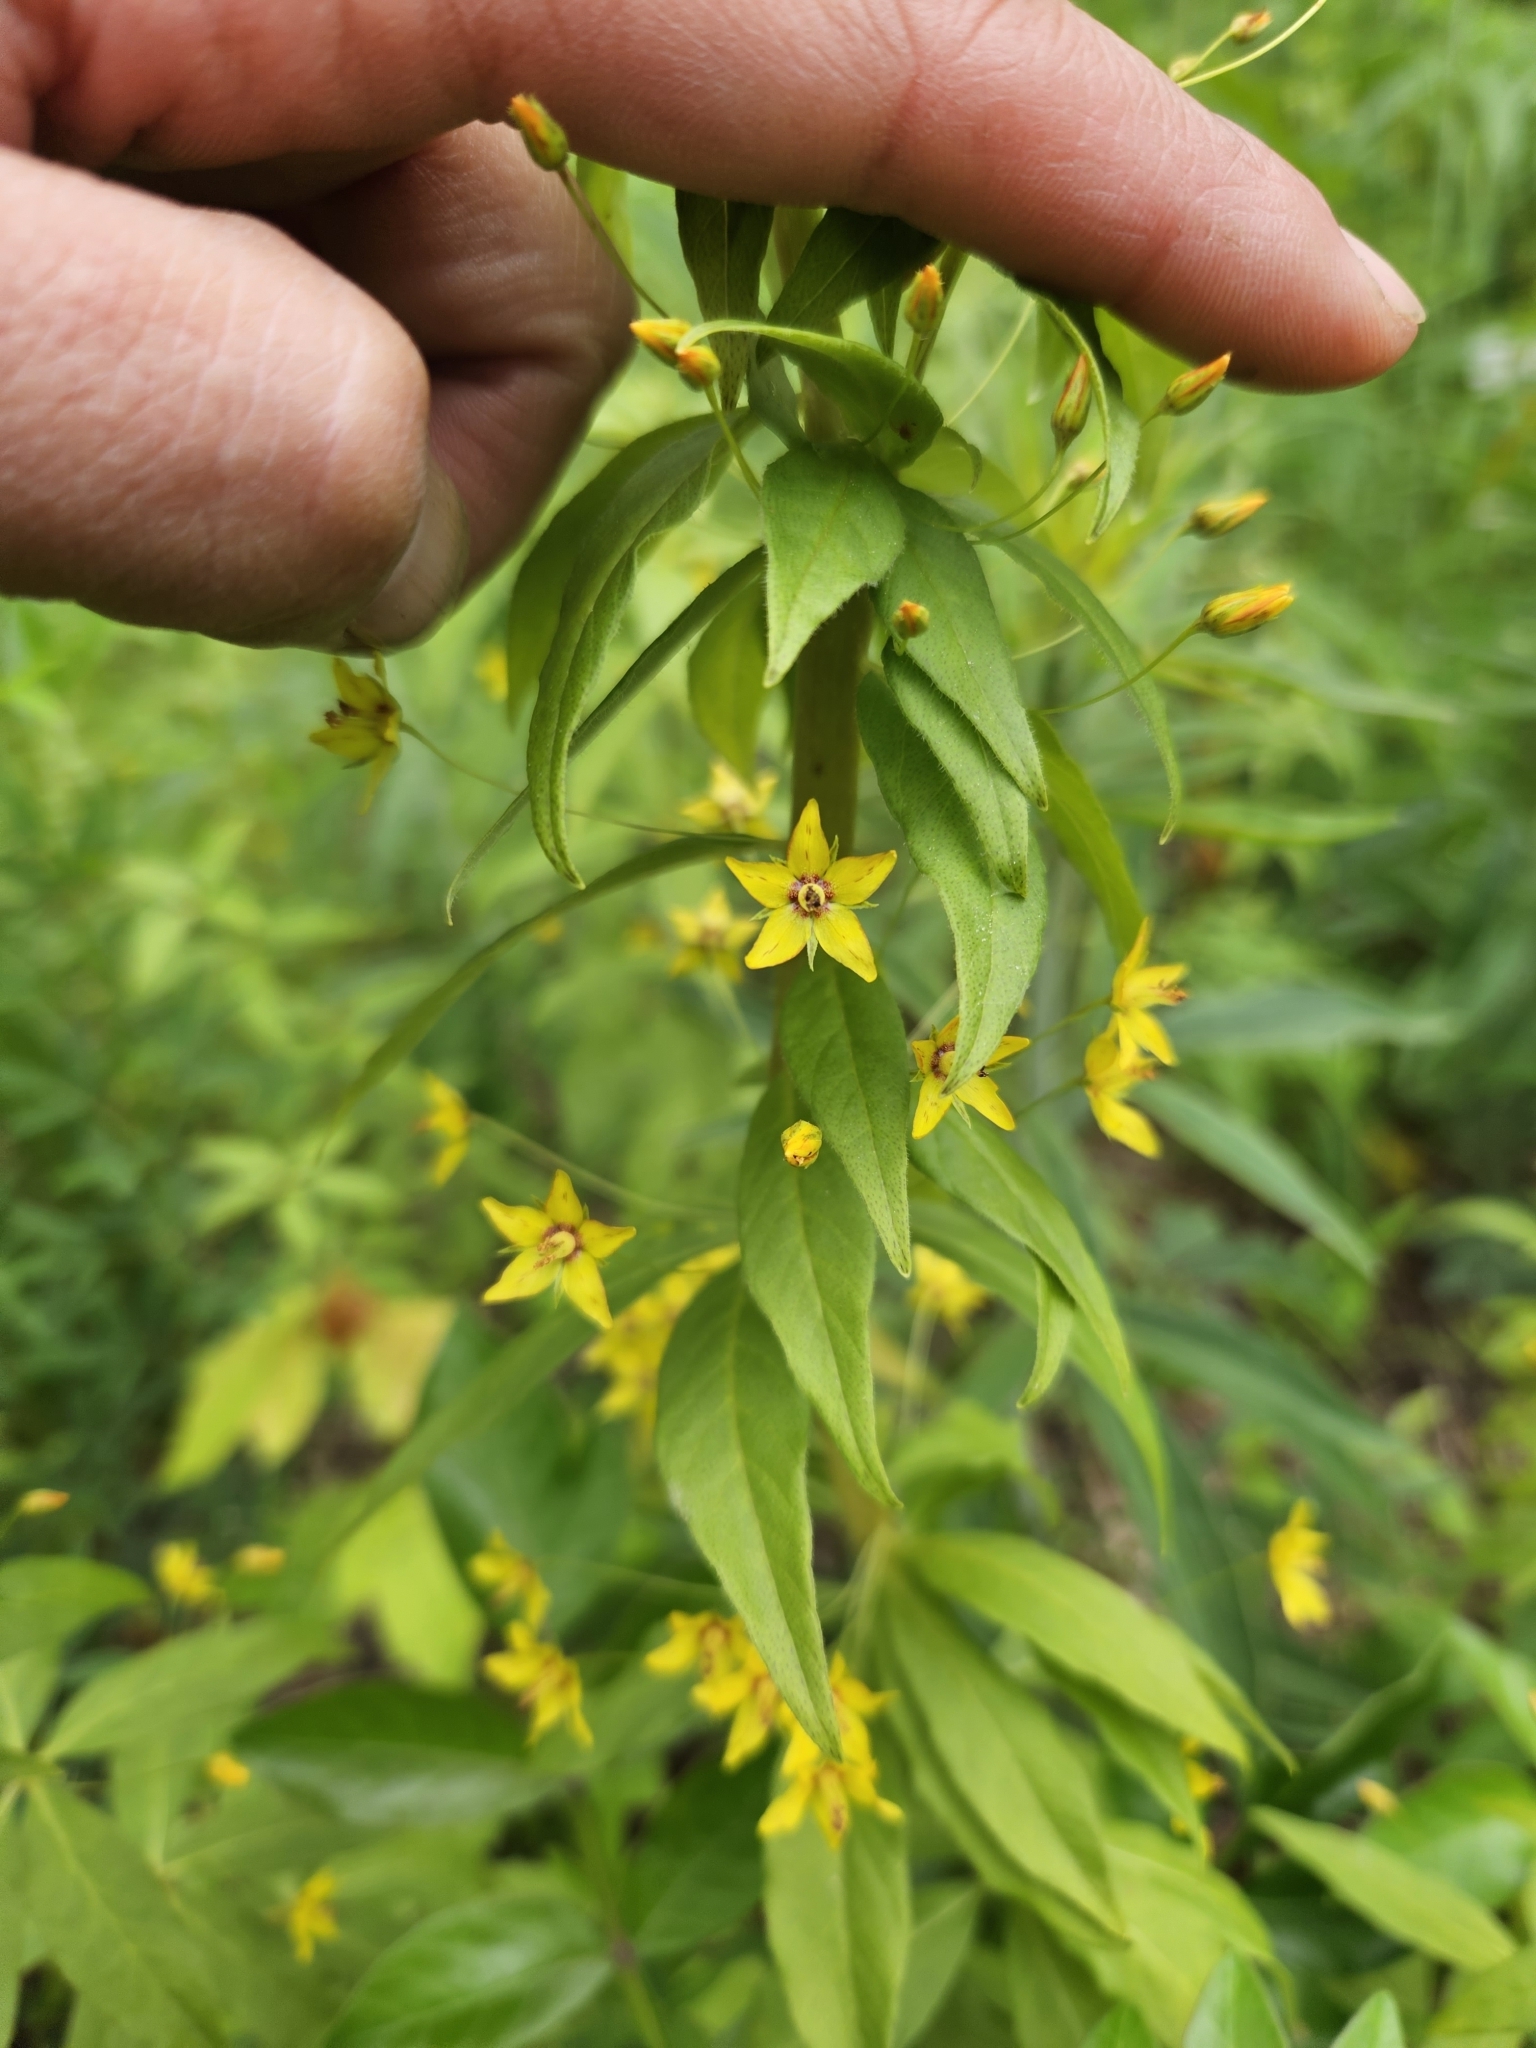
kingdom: Plantae
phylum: Tracheophyta
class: Magnoliopsida
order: Ericales
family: Primulaceae
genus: Lysimachia
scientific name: Lysimachia quadrifolia
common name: Whorled loosestrife
